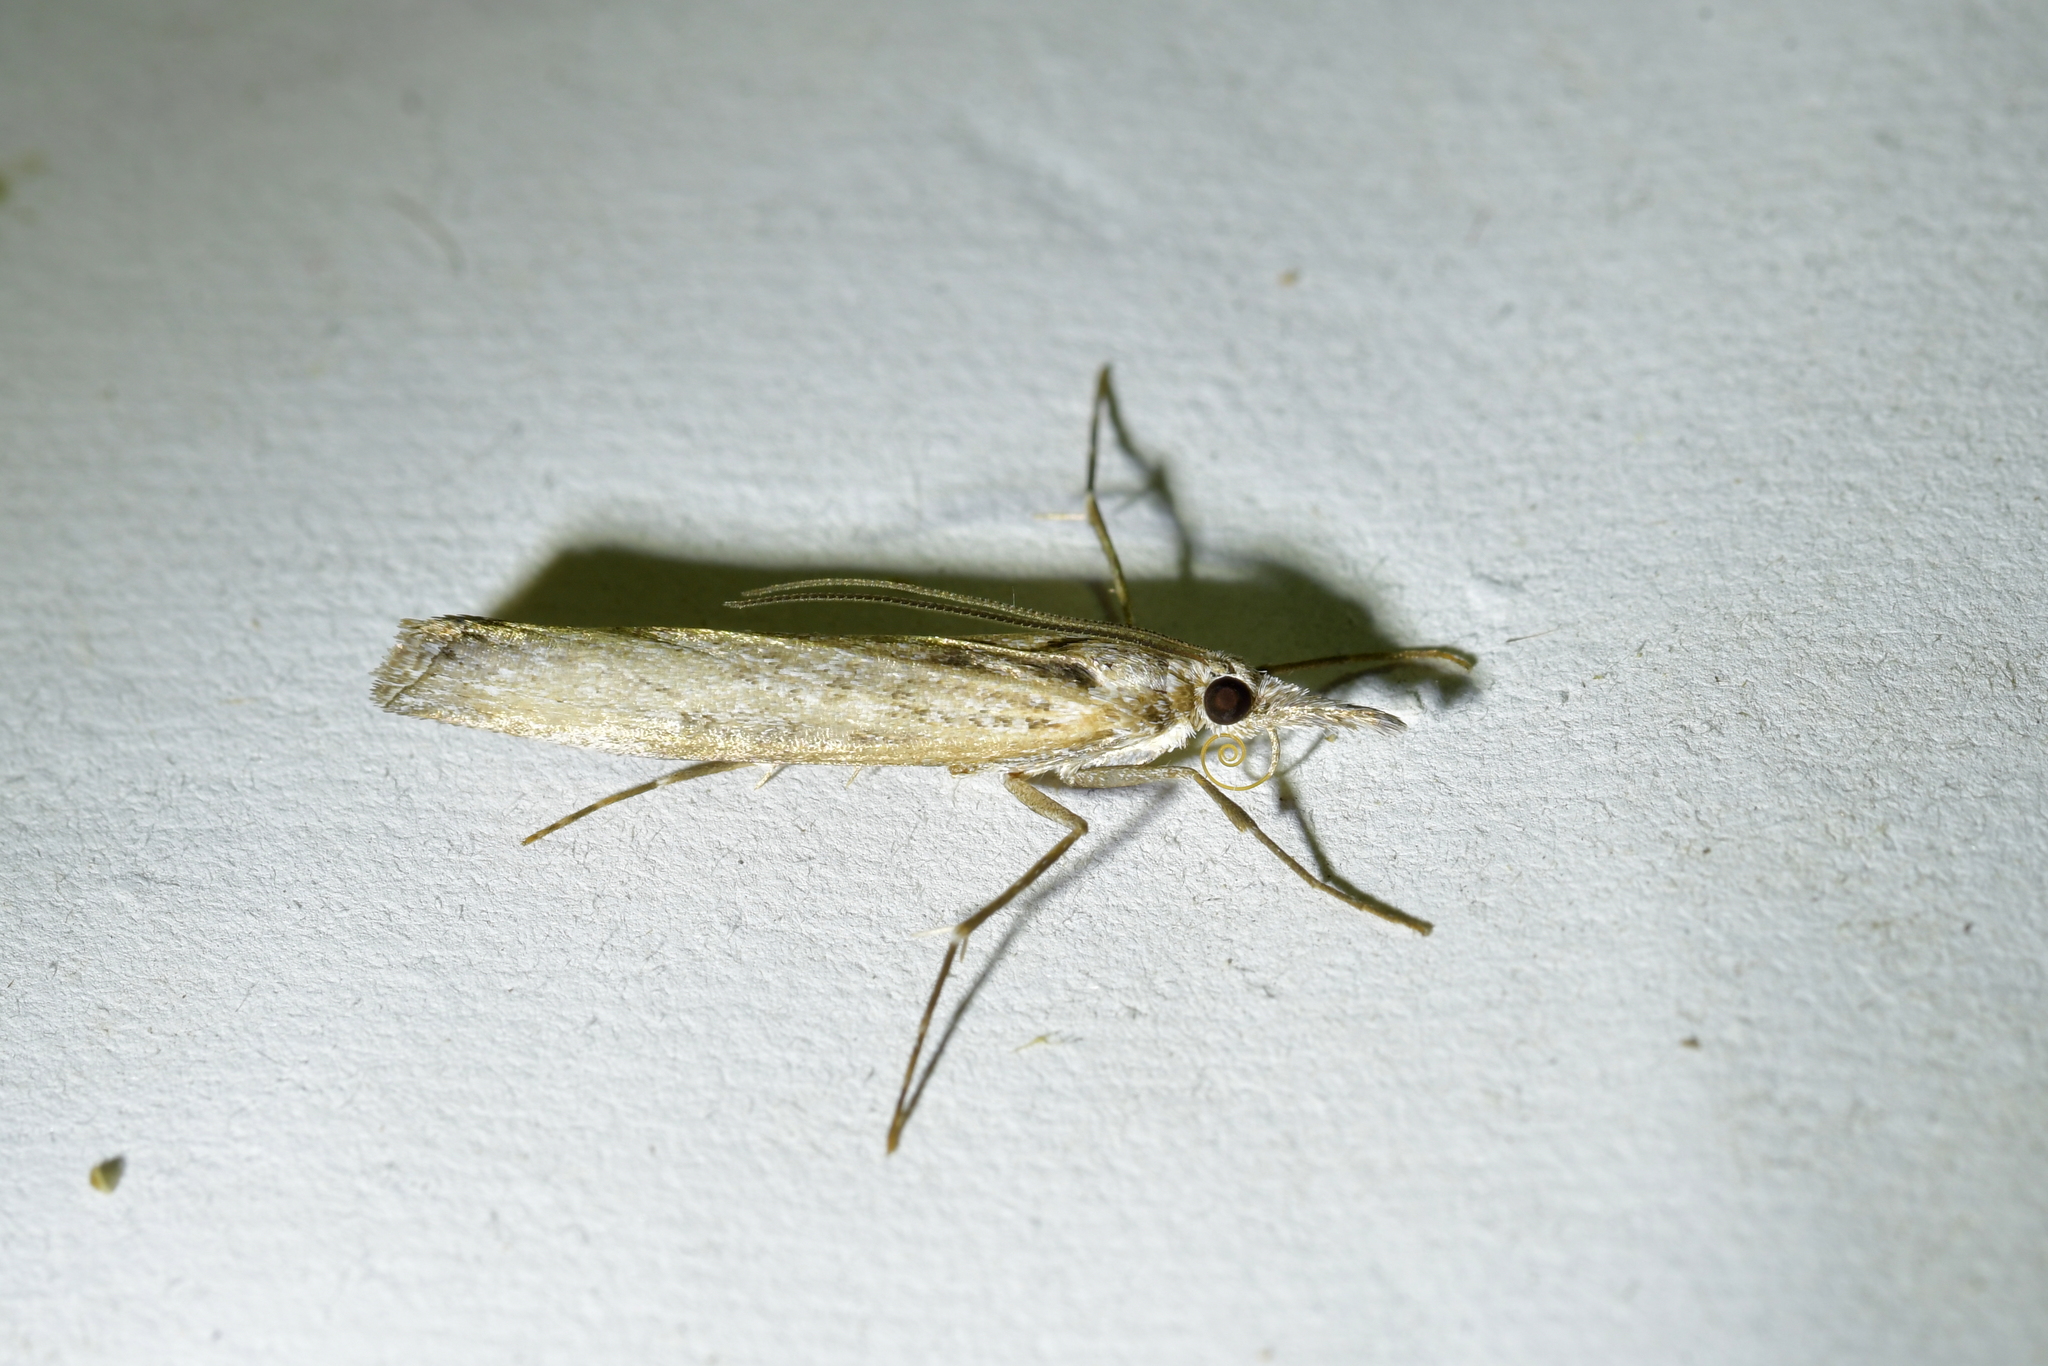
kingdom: Animalia
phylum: Arthropoda
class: Insecta
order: Lepidoptera
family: Crambidae
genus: Orocrambus
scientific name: Orocrambus cyclopicus
